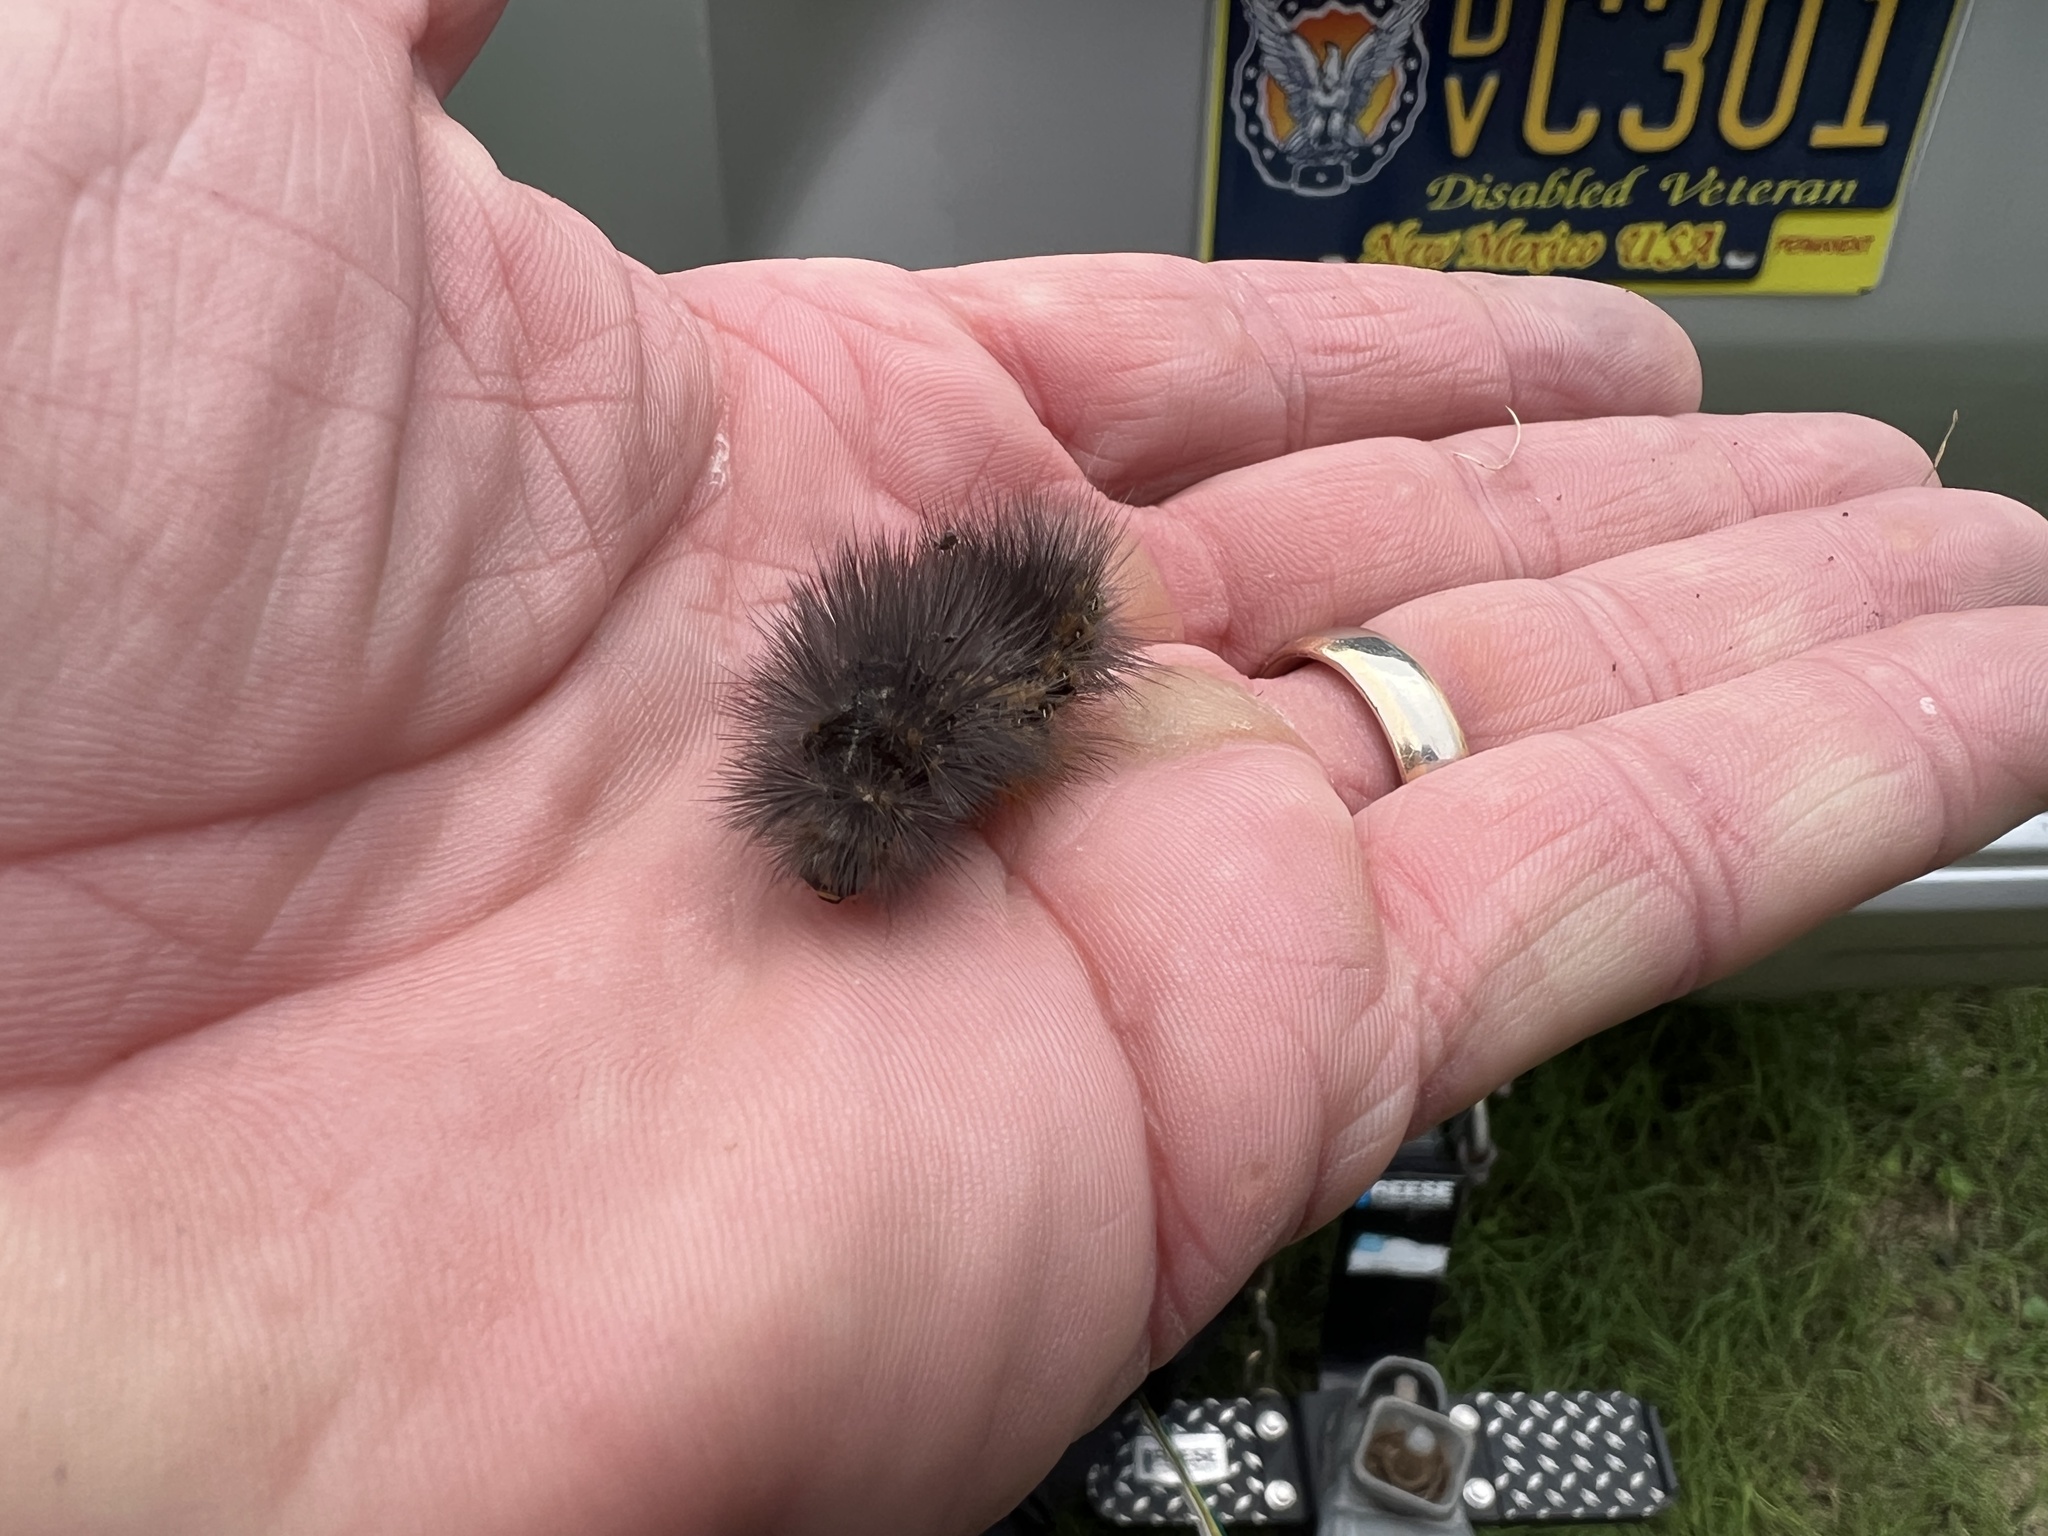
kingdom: Animalia
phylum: Arthropoda
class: Insecta
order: Lepidoptera
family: Erebidae
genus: Estigmene
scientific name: Estigmene acrea
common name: Salt marsh moth
